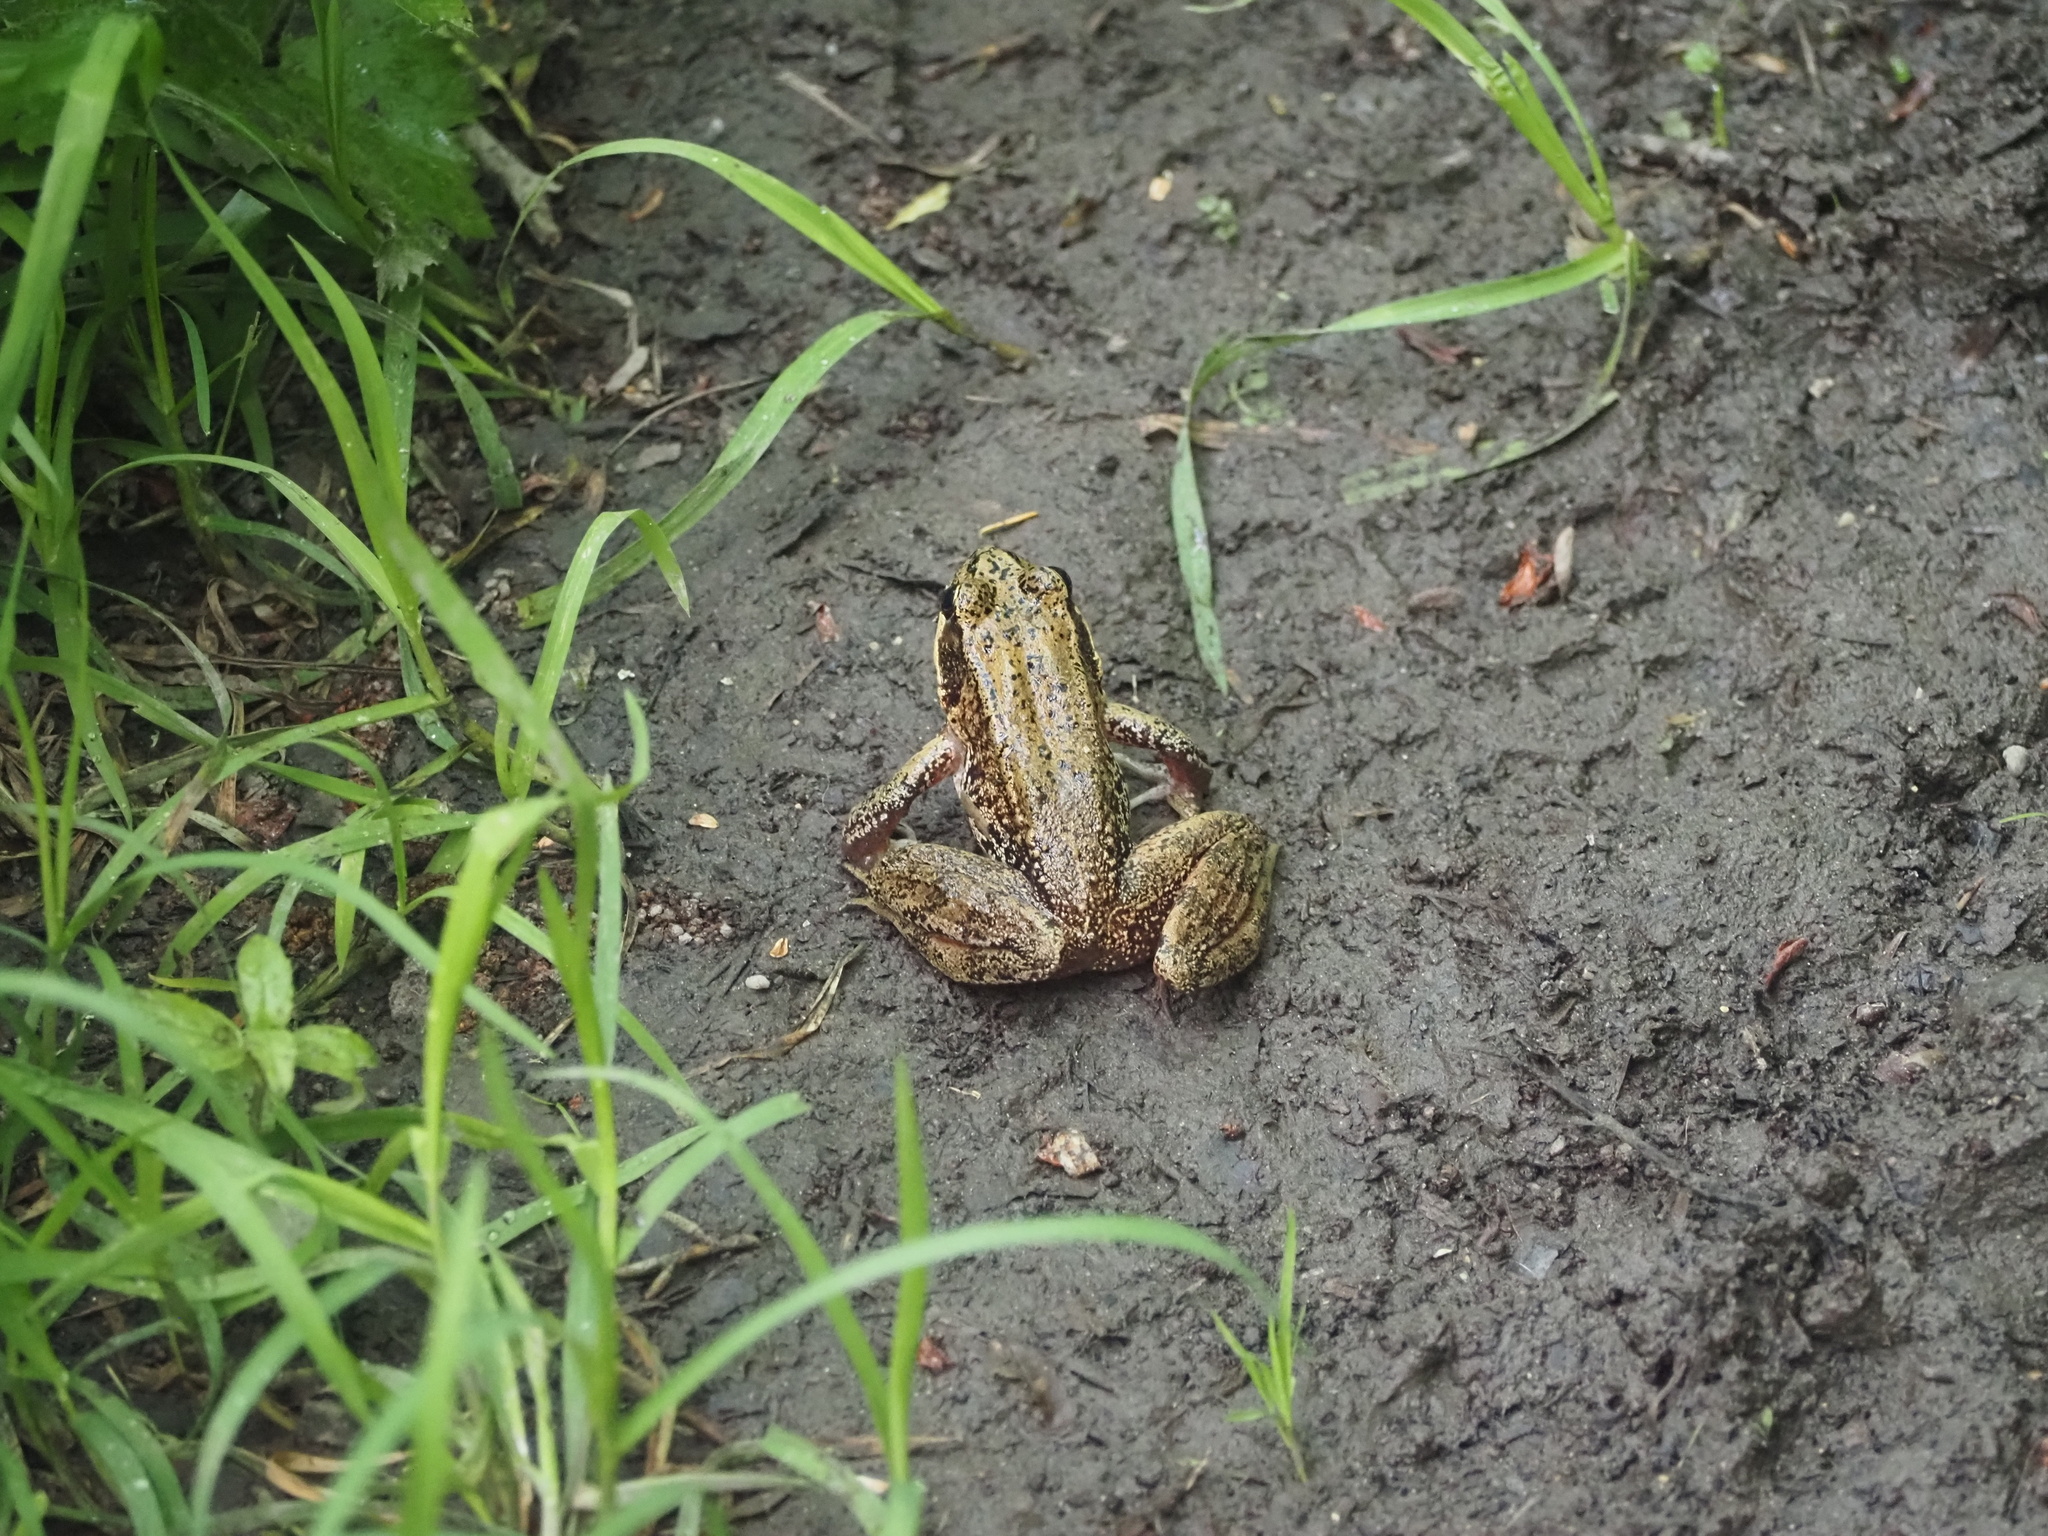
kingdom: Animalia
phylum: Chordata
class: Amphibia
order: Anura
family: Ranidae
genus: Rana
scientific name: Rana aurora
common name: Red-legged frog
